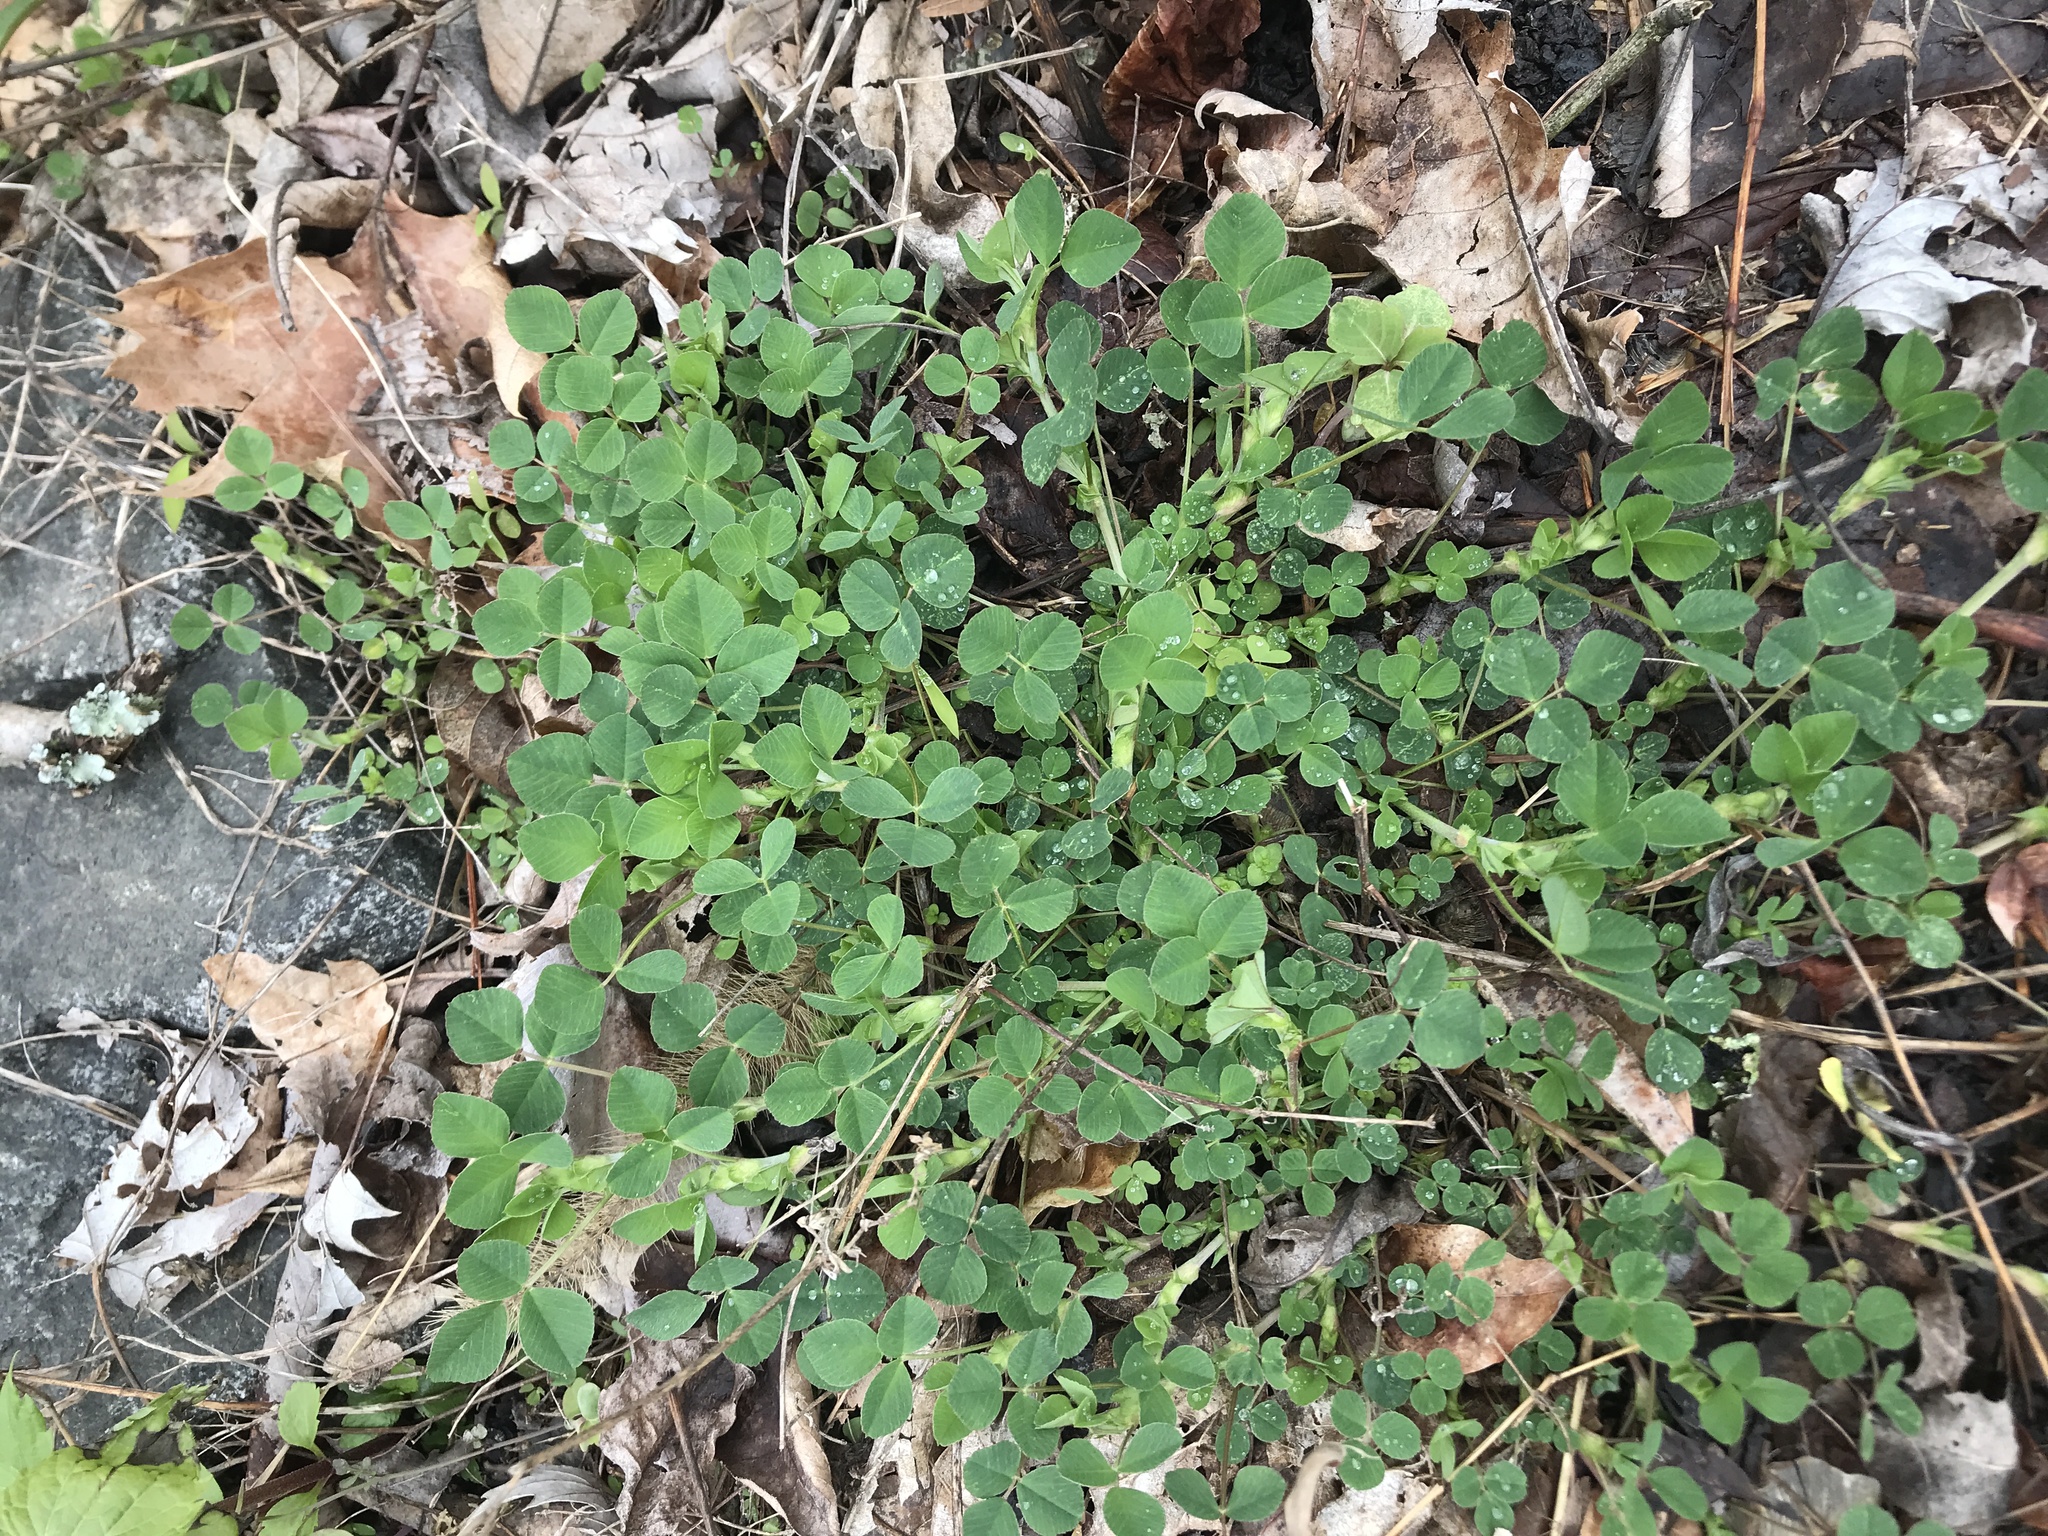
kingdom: Plantae
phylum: Tracheophyta
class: Magnoliopsida
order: Fabales
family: Fabaceae
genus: Medicago
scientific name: Medicago lupulina
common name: Black medick
